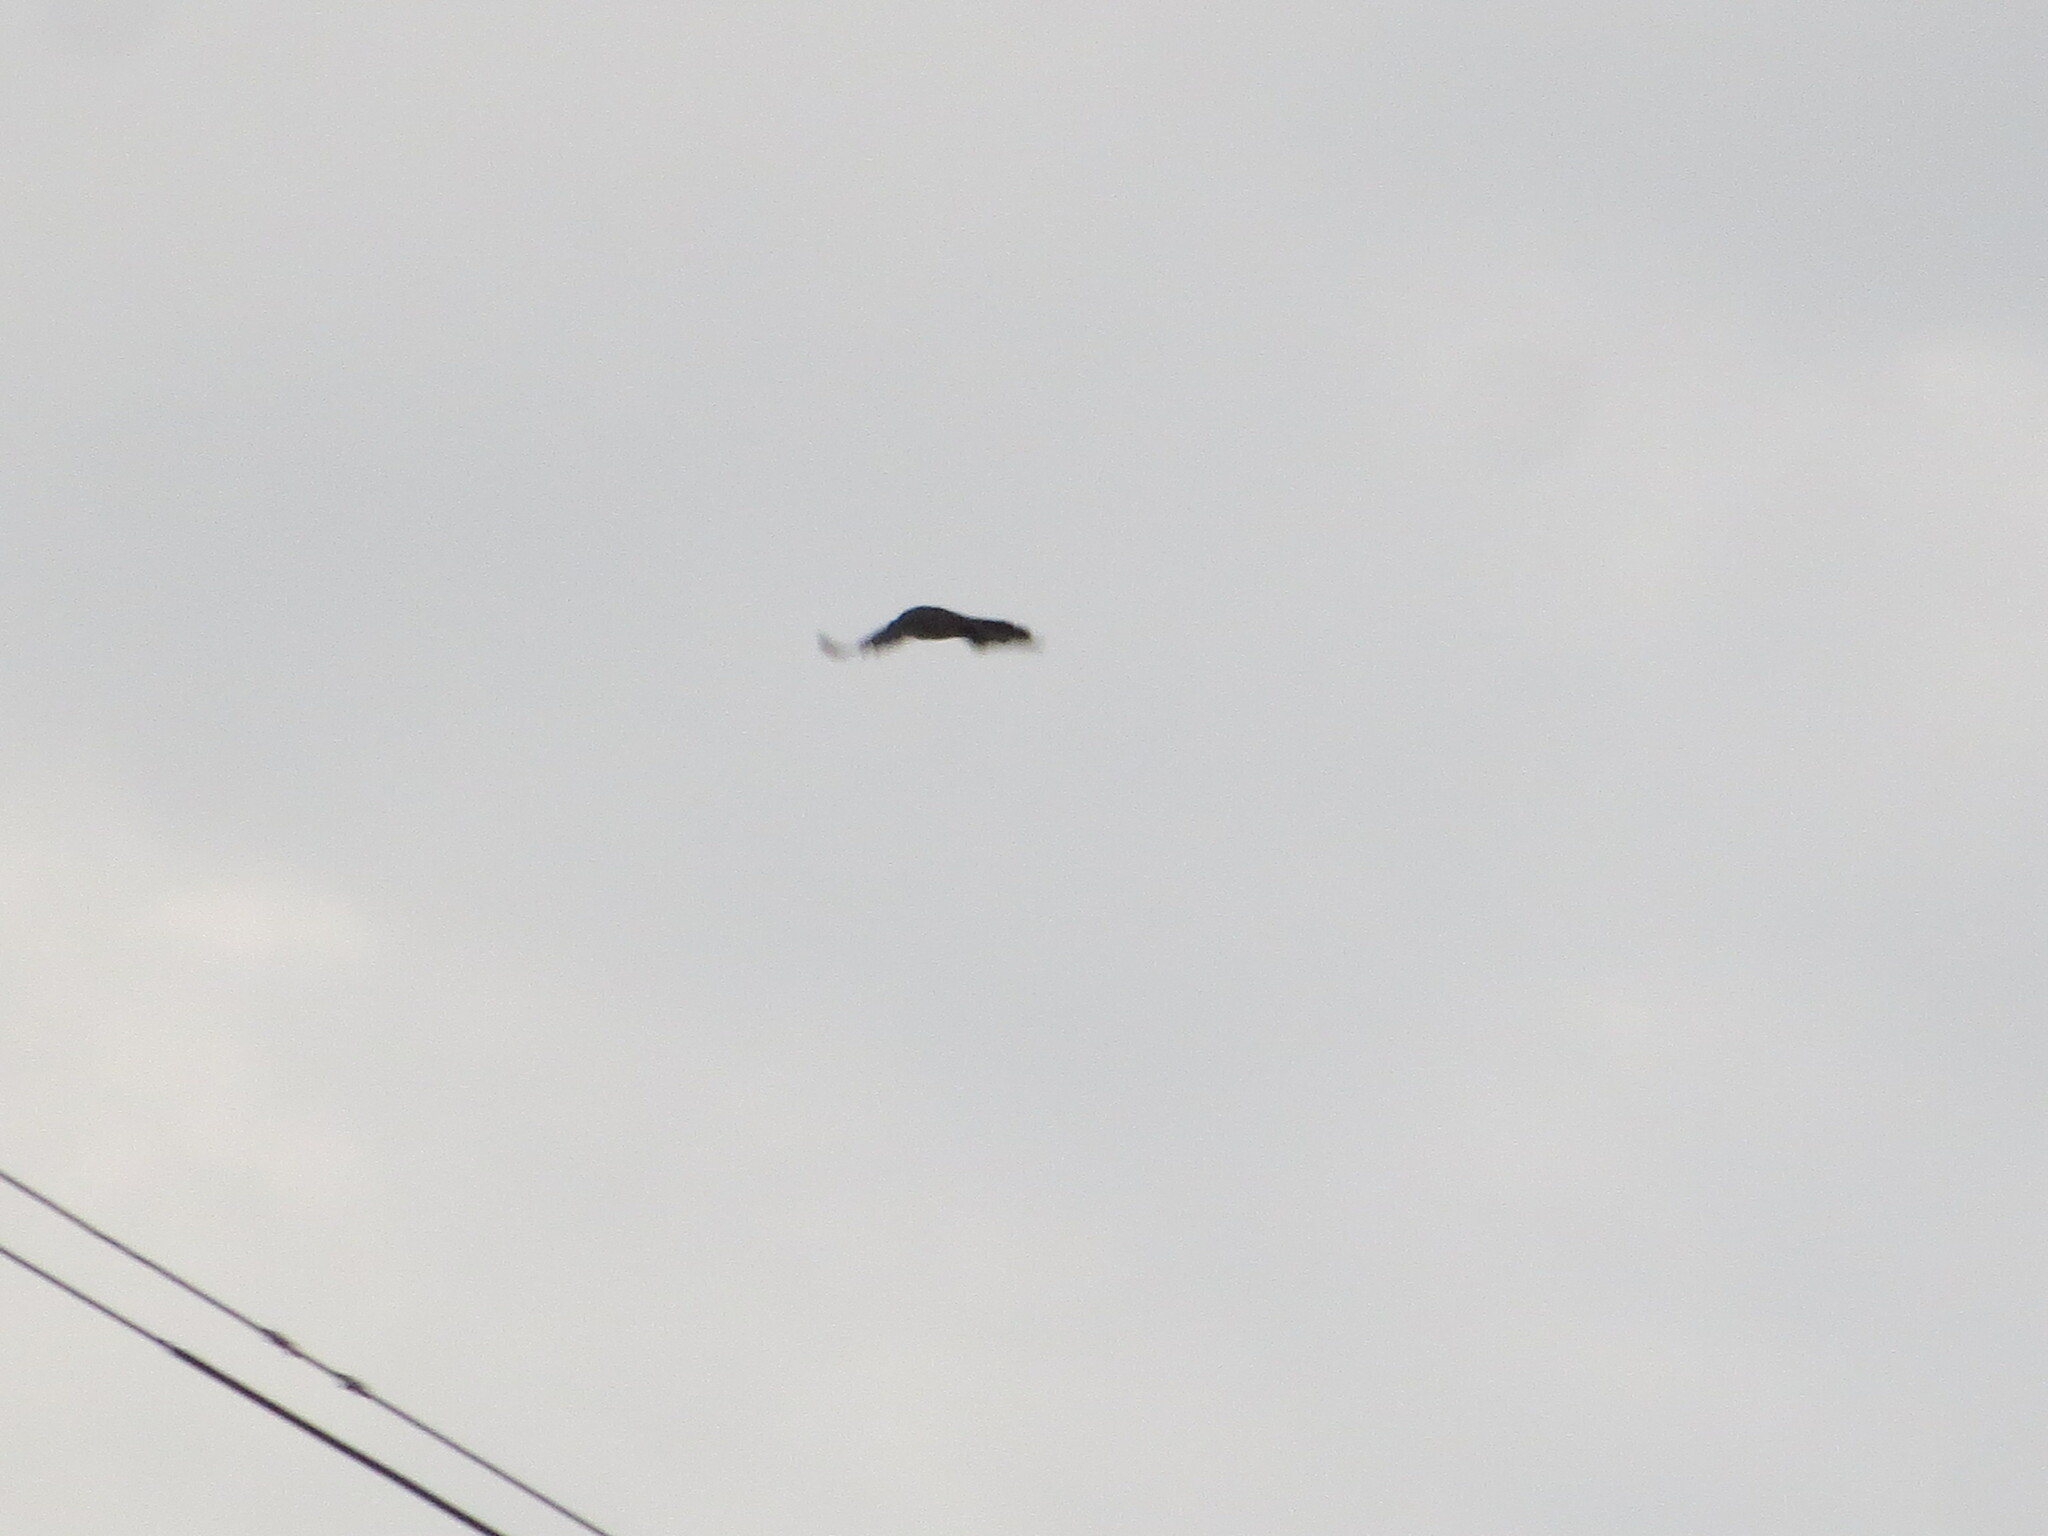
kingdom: Animalia
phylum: Chordata
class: Aves
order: Accipitriformes
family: Cathartidae
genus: Coragyps
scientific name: Coragyps atratus
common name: Black vulture
